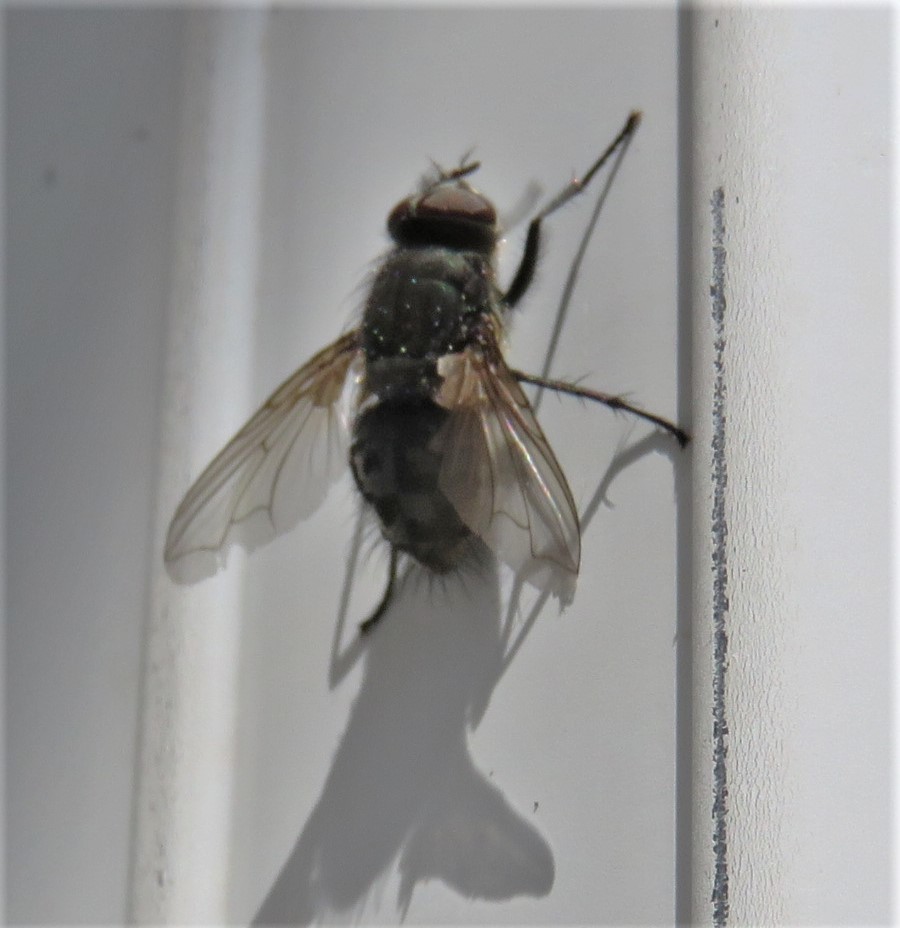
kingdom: Animalia
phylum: Arthropoda
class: Insecta
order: Diptera
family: Polleniidae
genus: Pollenia
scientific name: Pollenia
